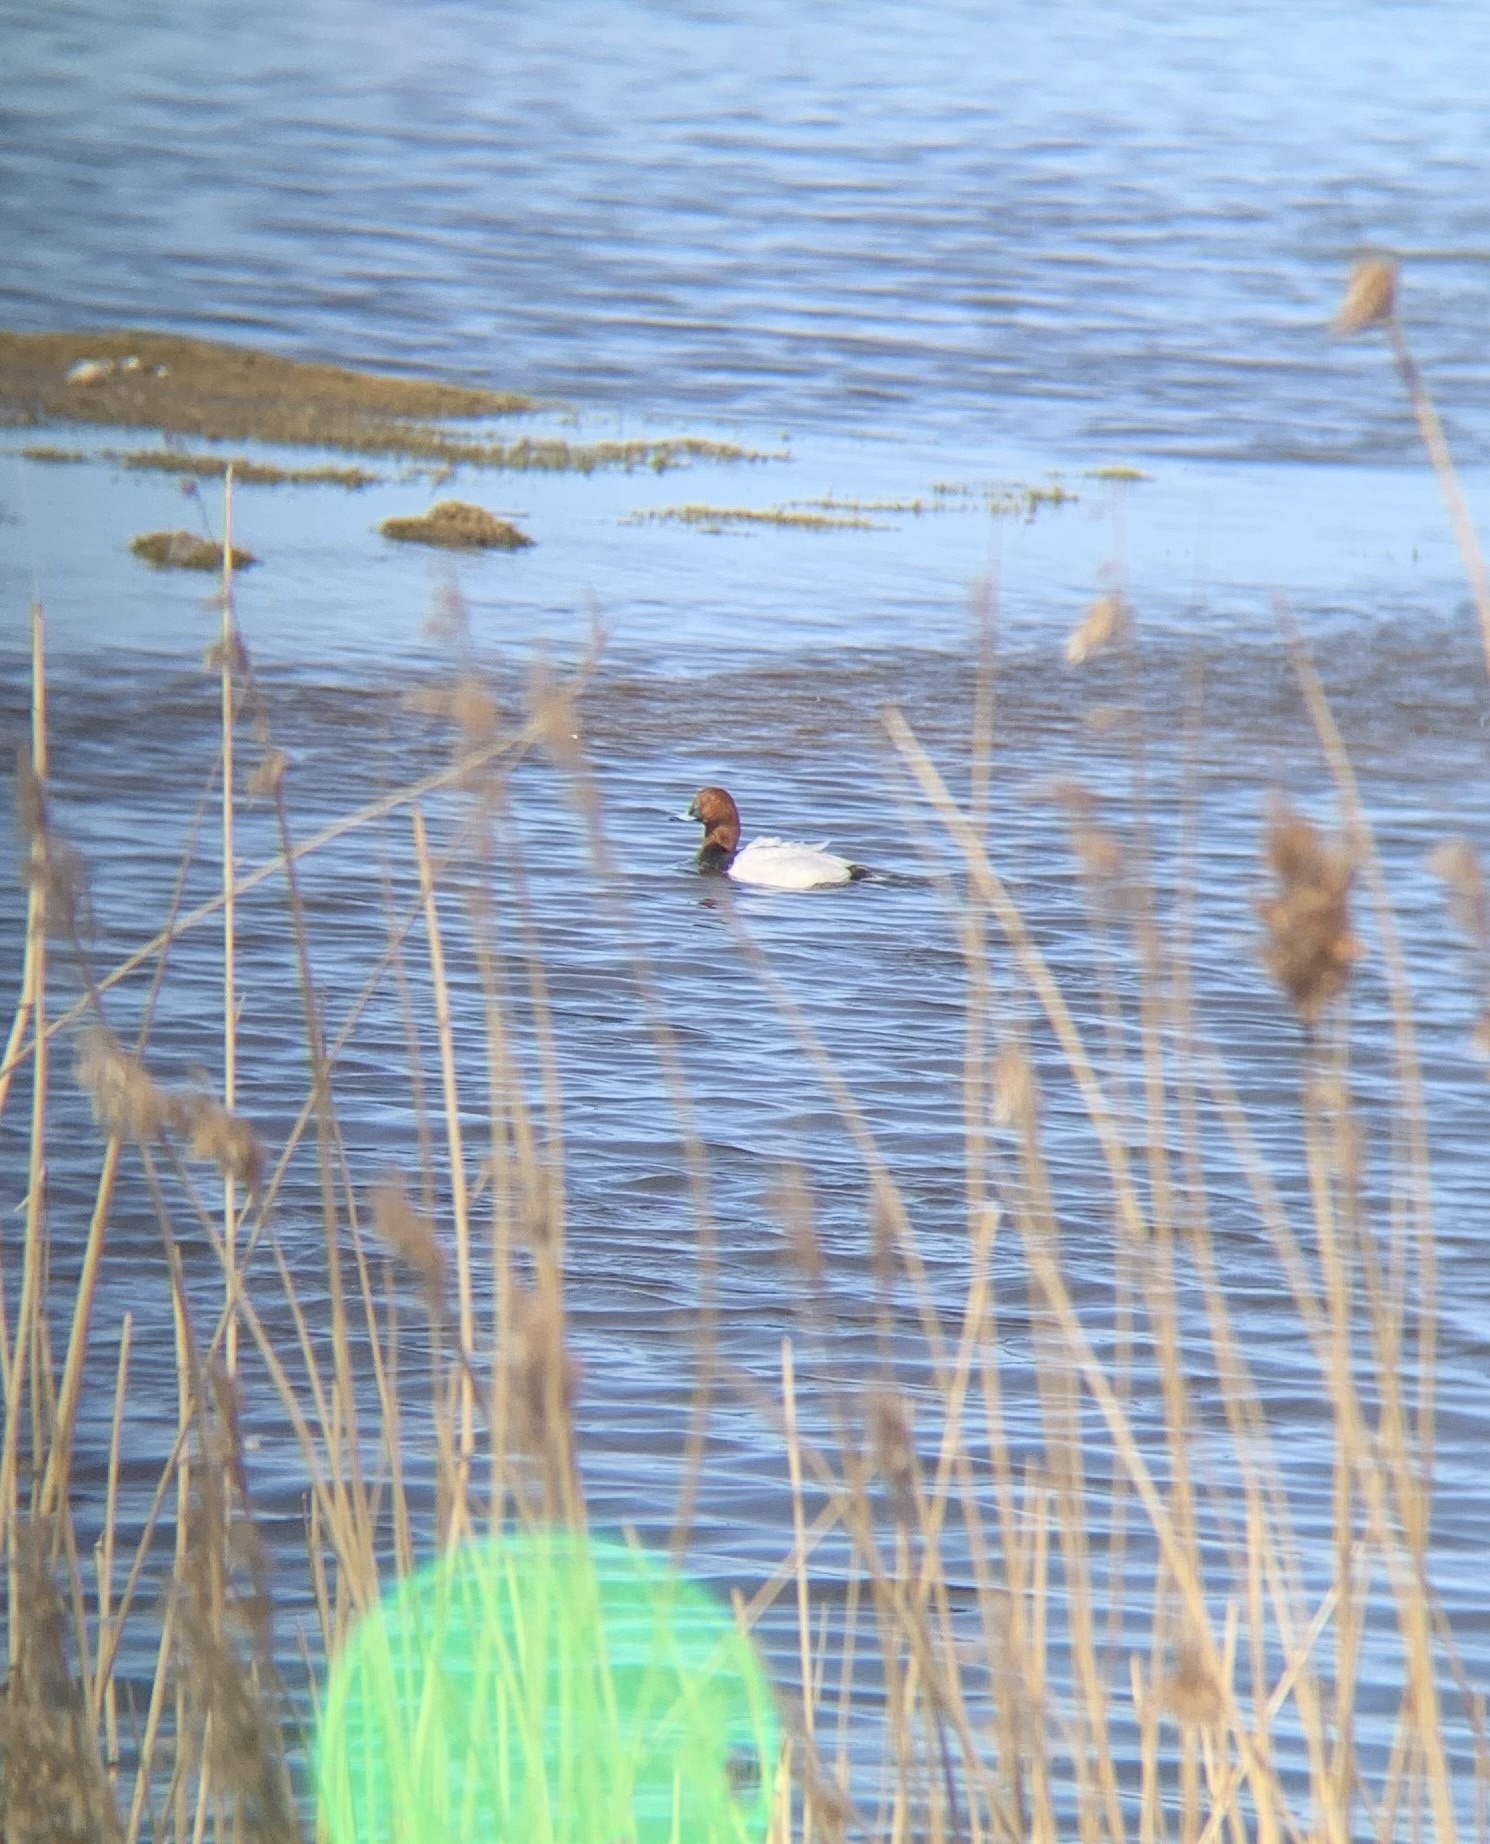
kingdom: Animalia
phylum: Chordata
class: Aves
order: Anseriformes
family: Anatidae
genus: Aythya
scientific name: Aythya ferina
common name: Common pochard
